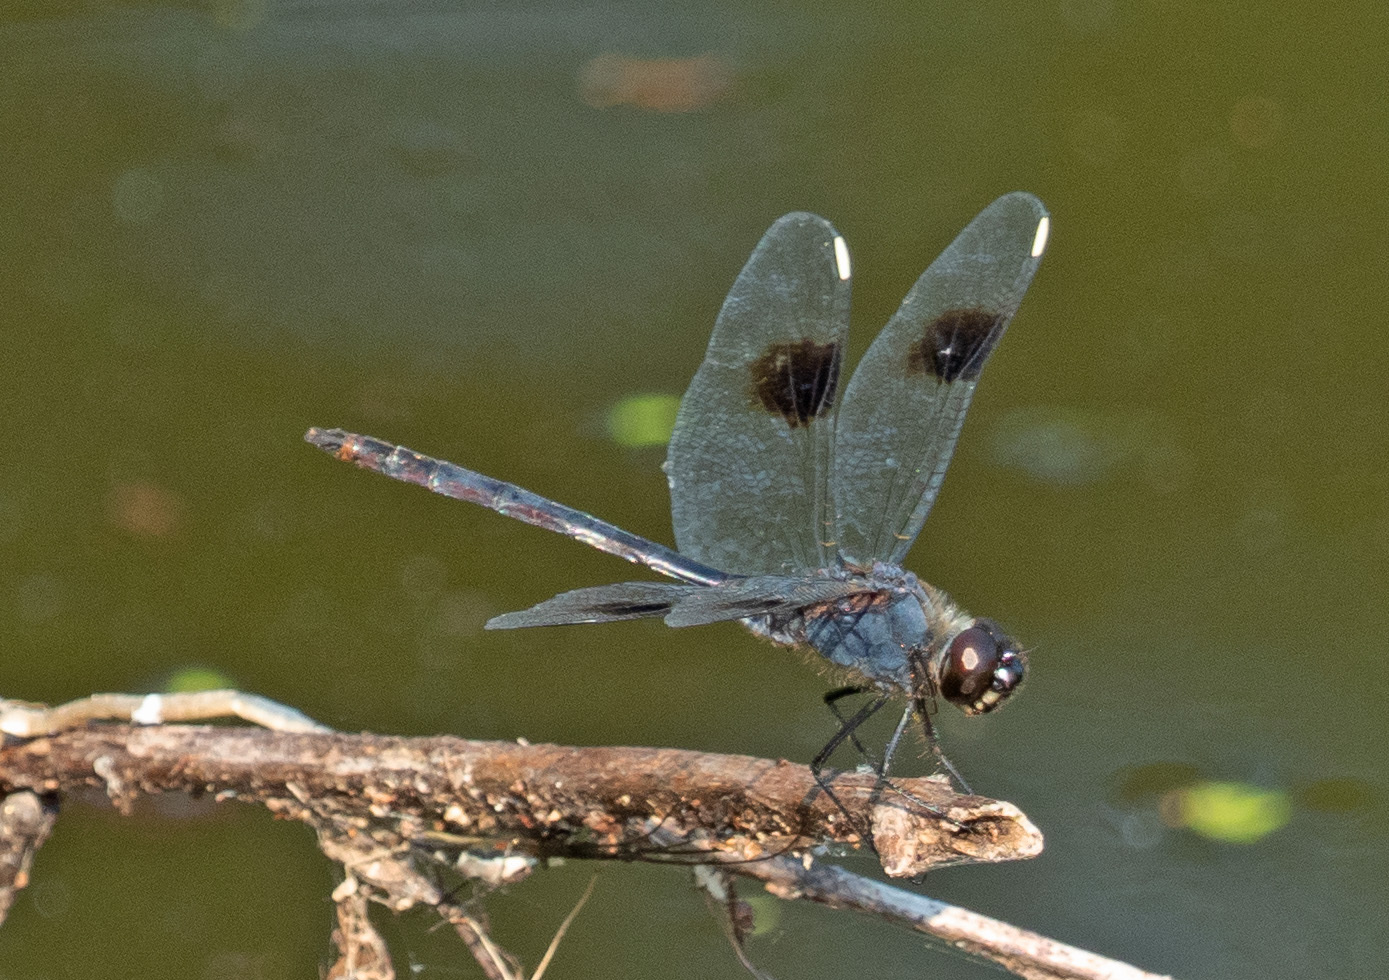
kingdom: Animalia
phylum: Arthropoda
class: Insecta
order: Odonata
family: Libellulidae
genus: Brachymesia
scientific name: Brachymesia gravida
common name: Four-spotted pennant
